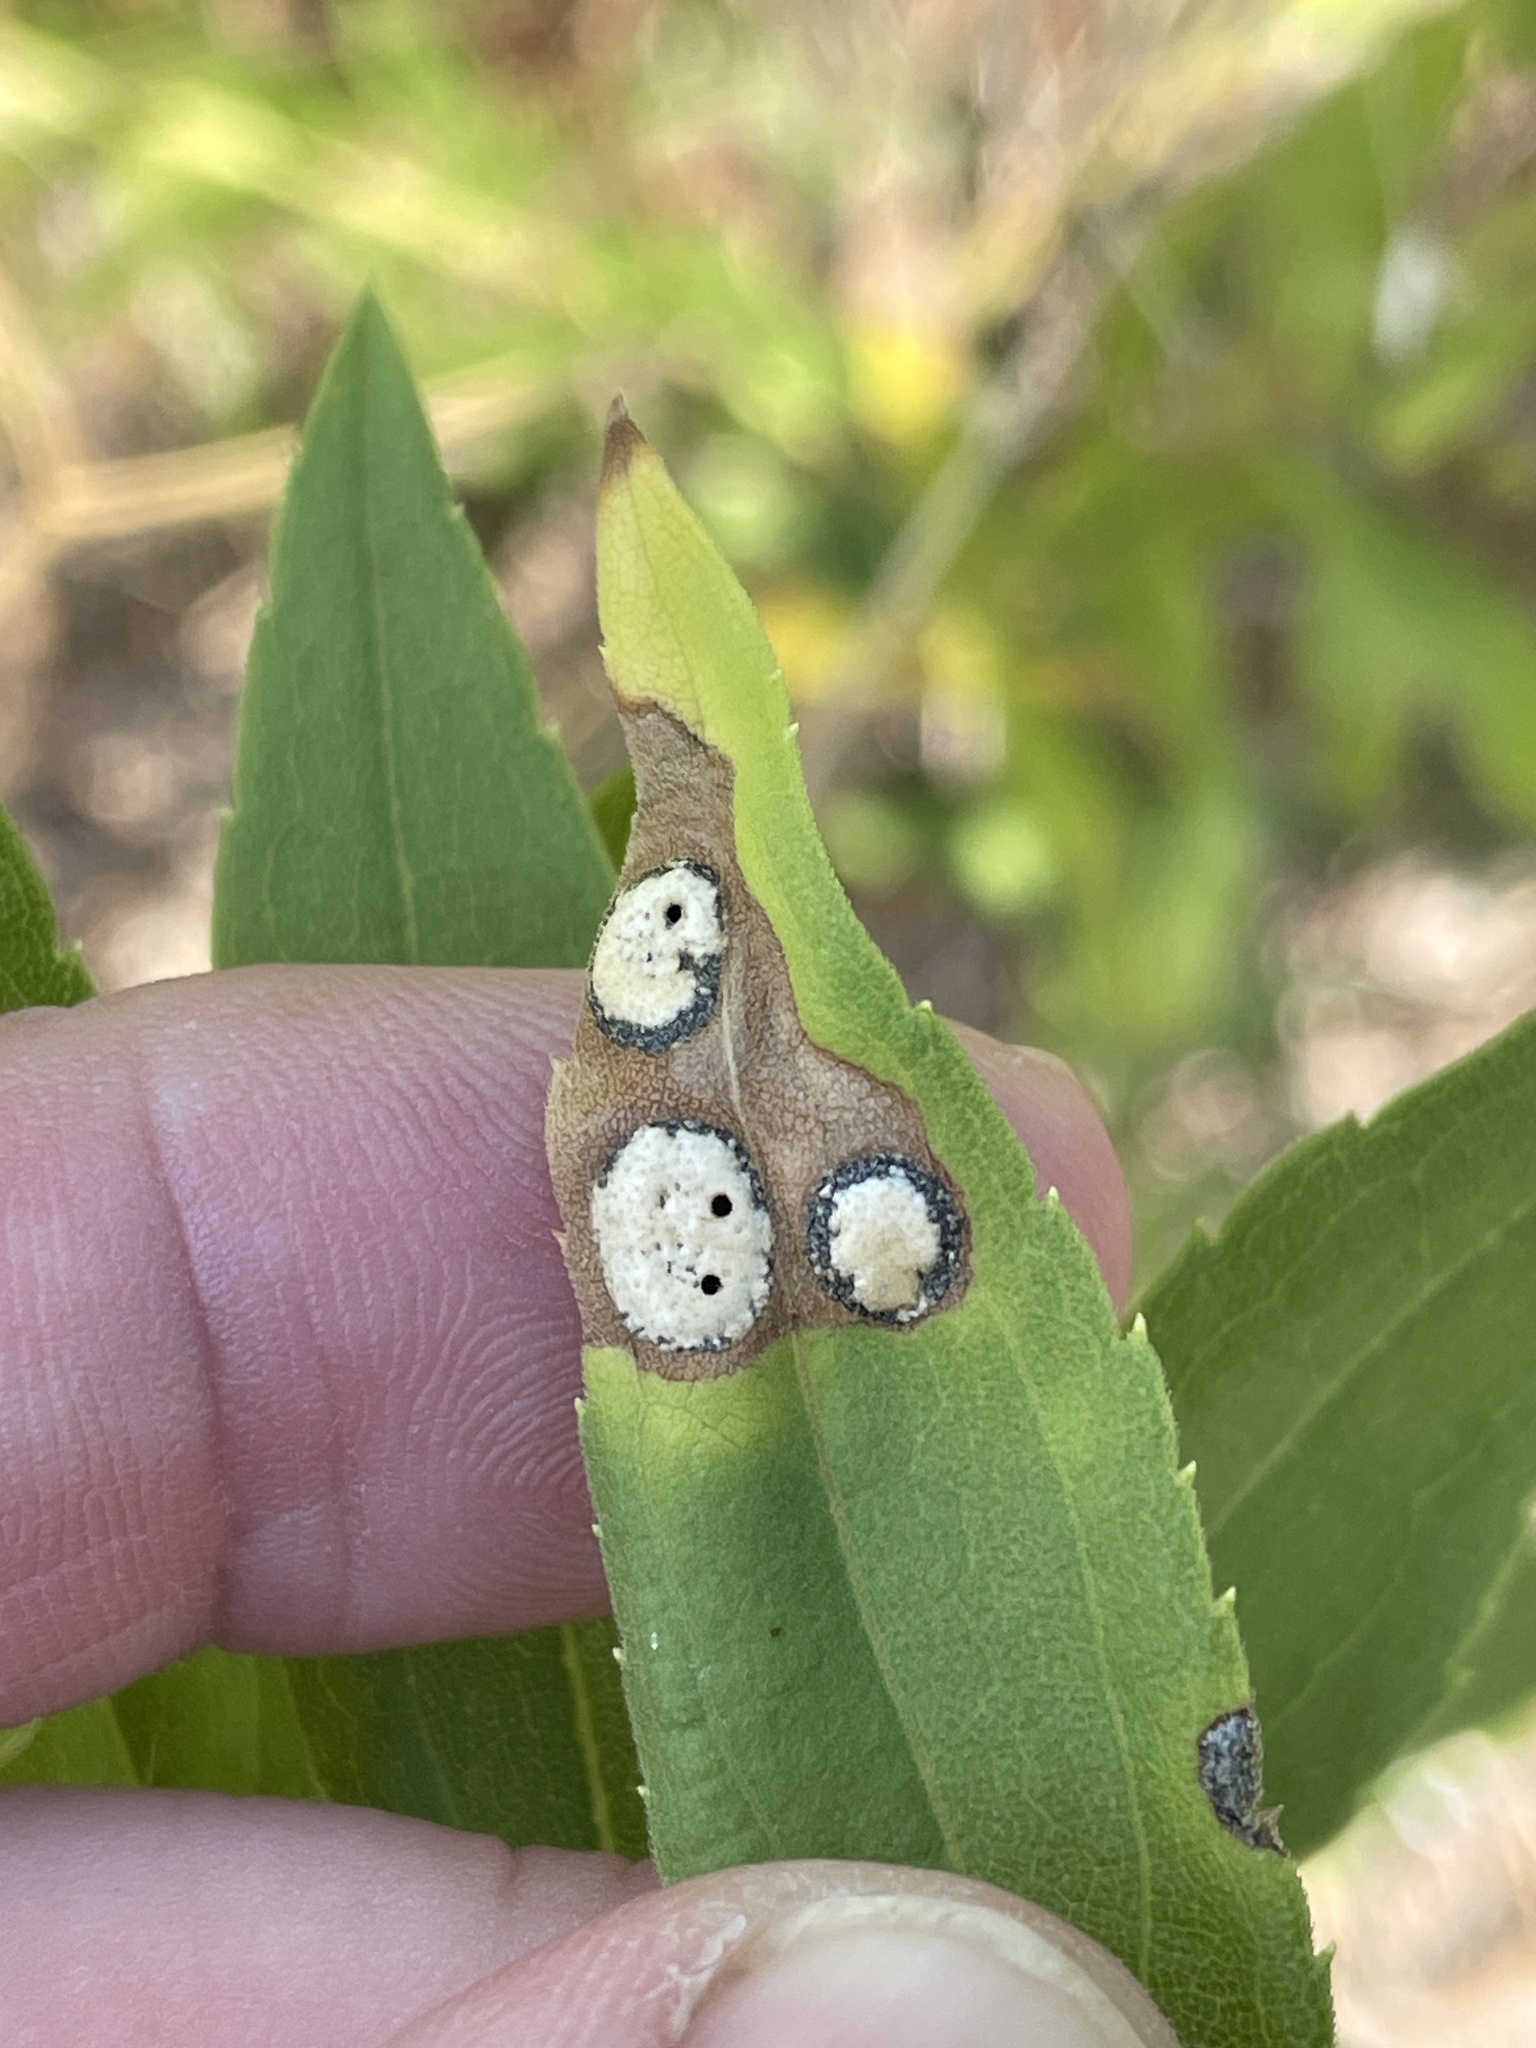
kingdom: Animalia
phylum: Arthropoda
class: Insecta
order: Diptera
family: Cecidomyiidae
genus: Asteromyia
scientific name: Asteromyia carbonifera
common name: Carbonifera goldenrod gall midge
